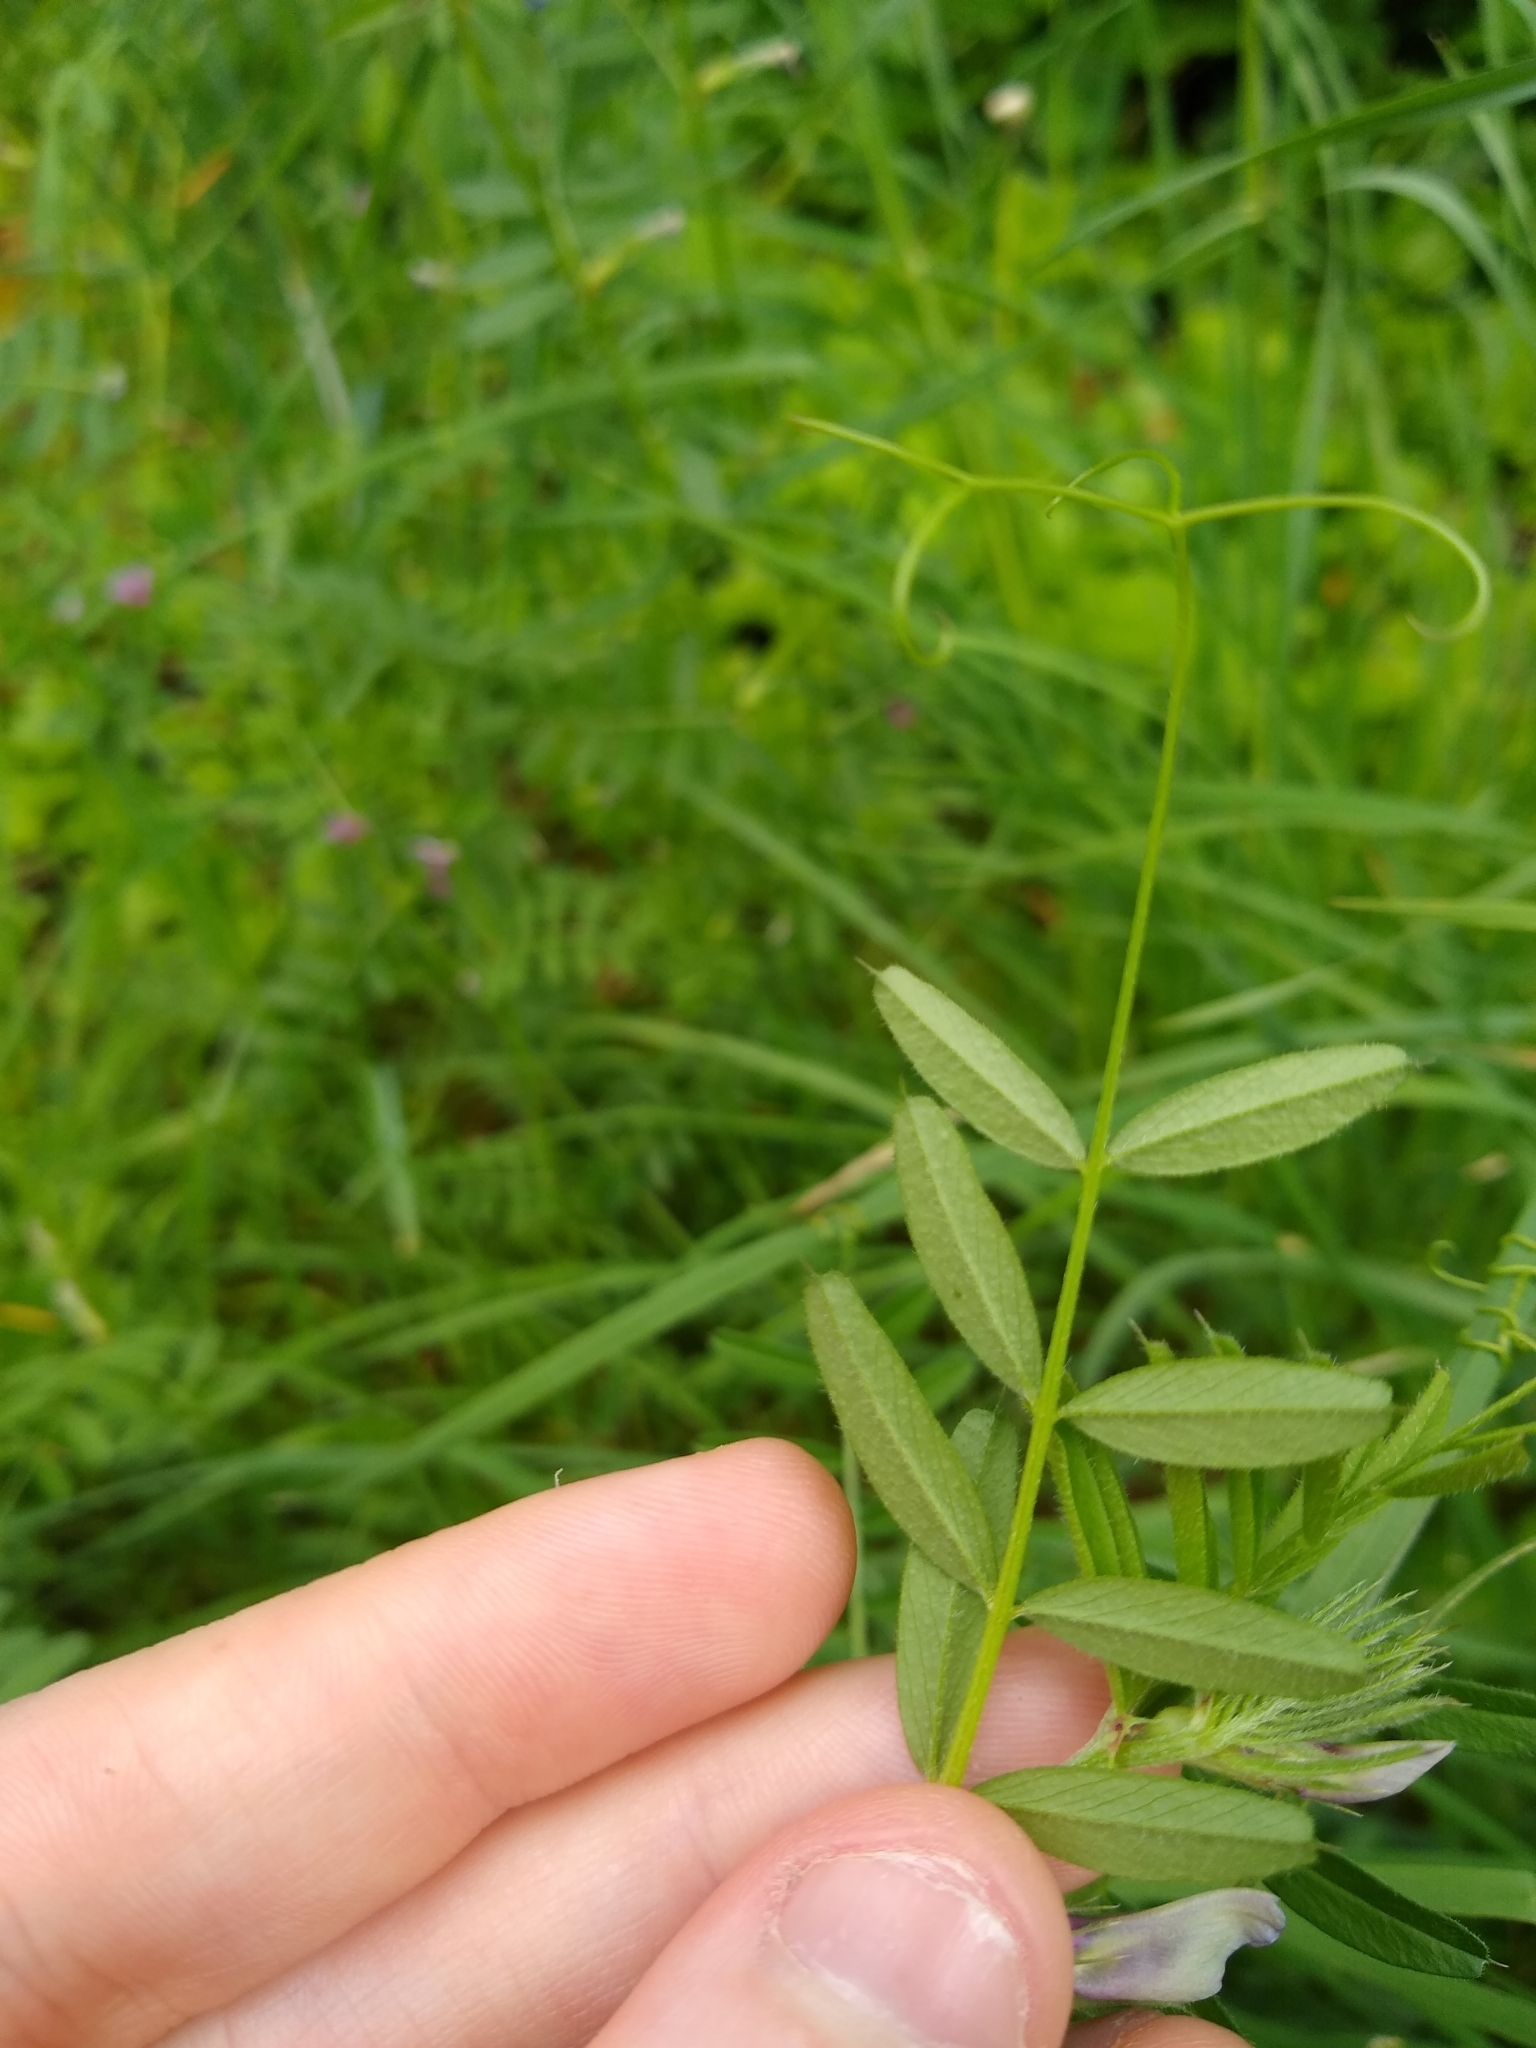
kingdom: Plantae
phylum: Tracheophyta
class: Magnoliopsida
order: Fabales
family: Fabaceae
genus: Vicia
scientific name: Vicia sativa
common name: Garden vetch
